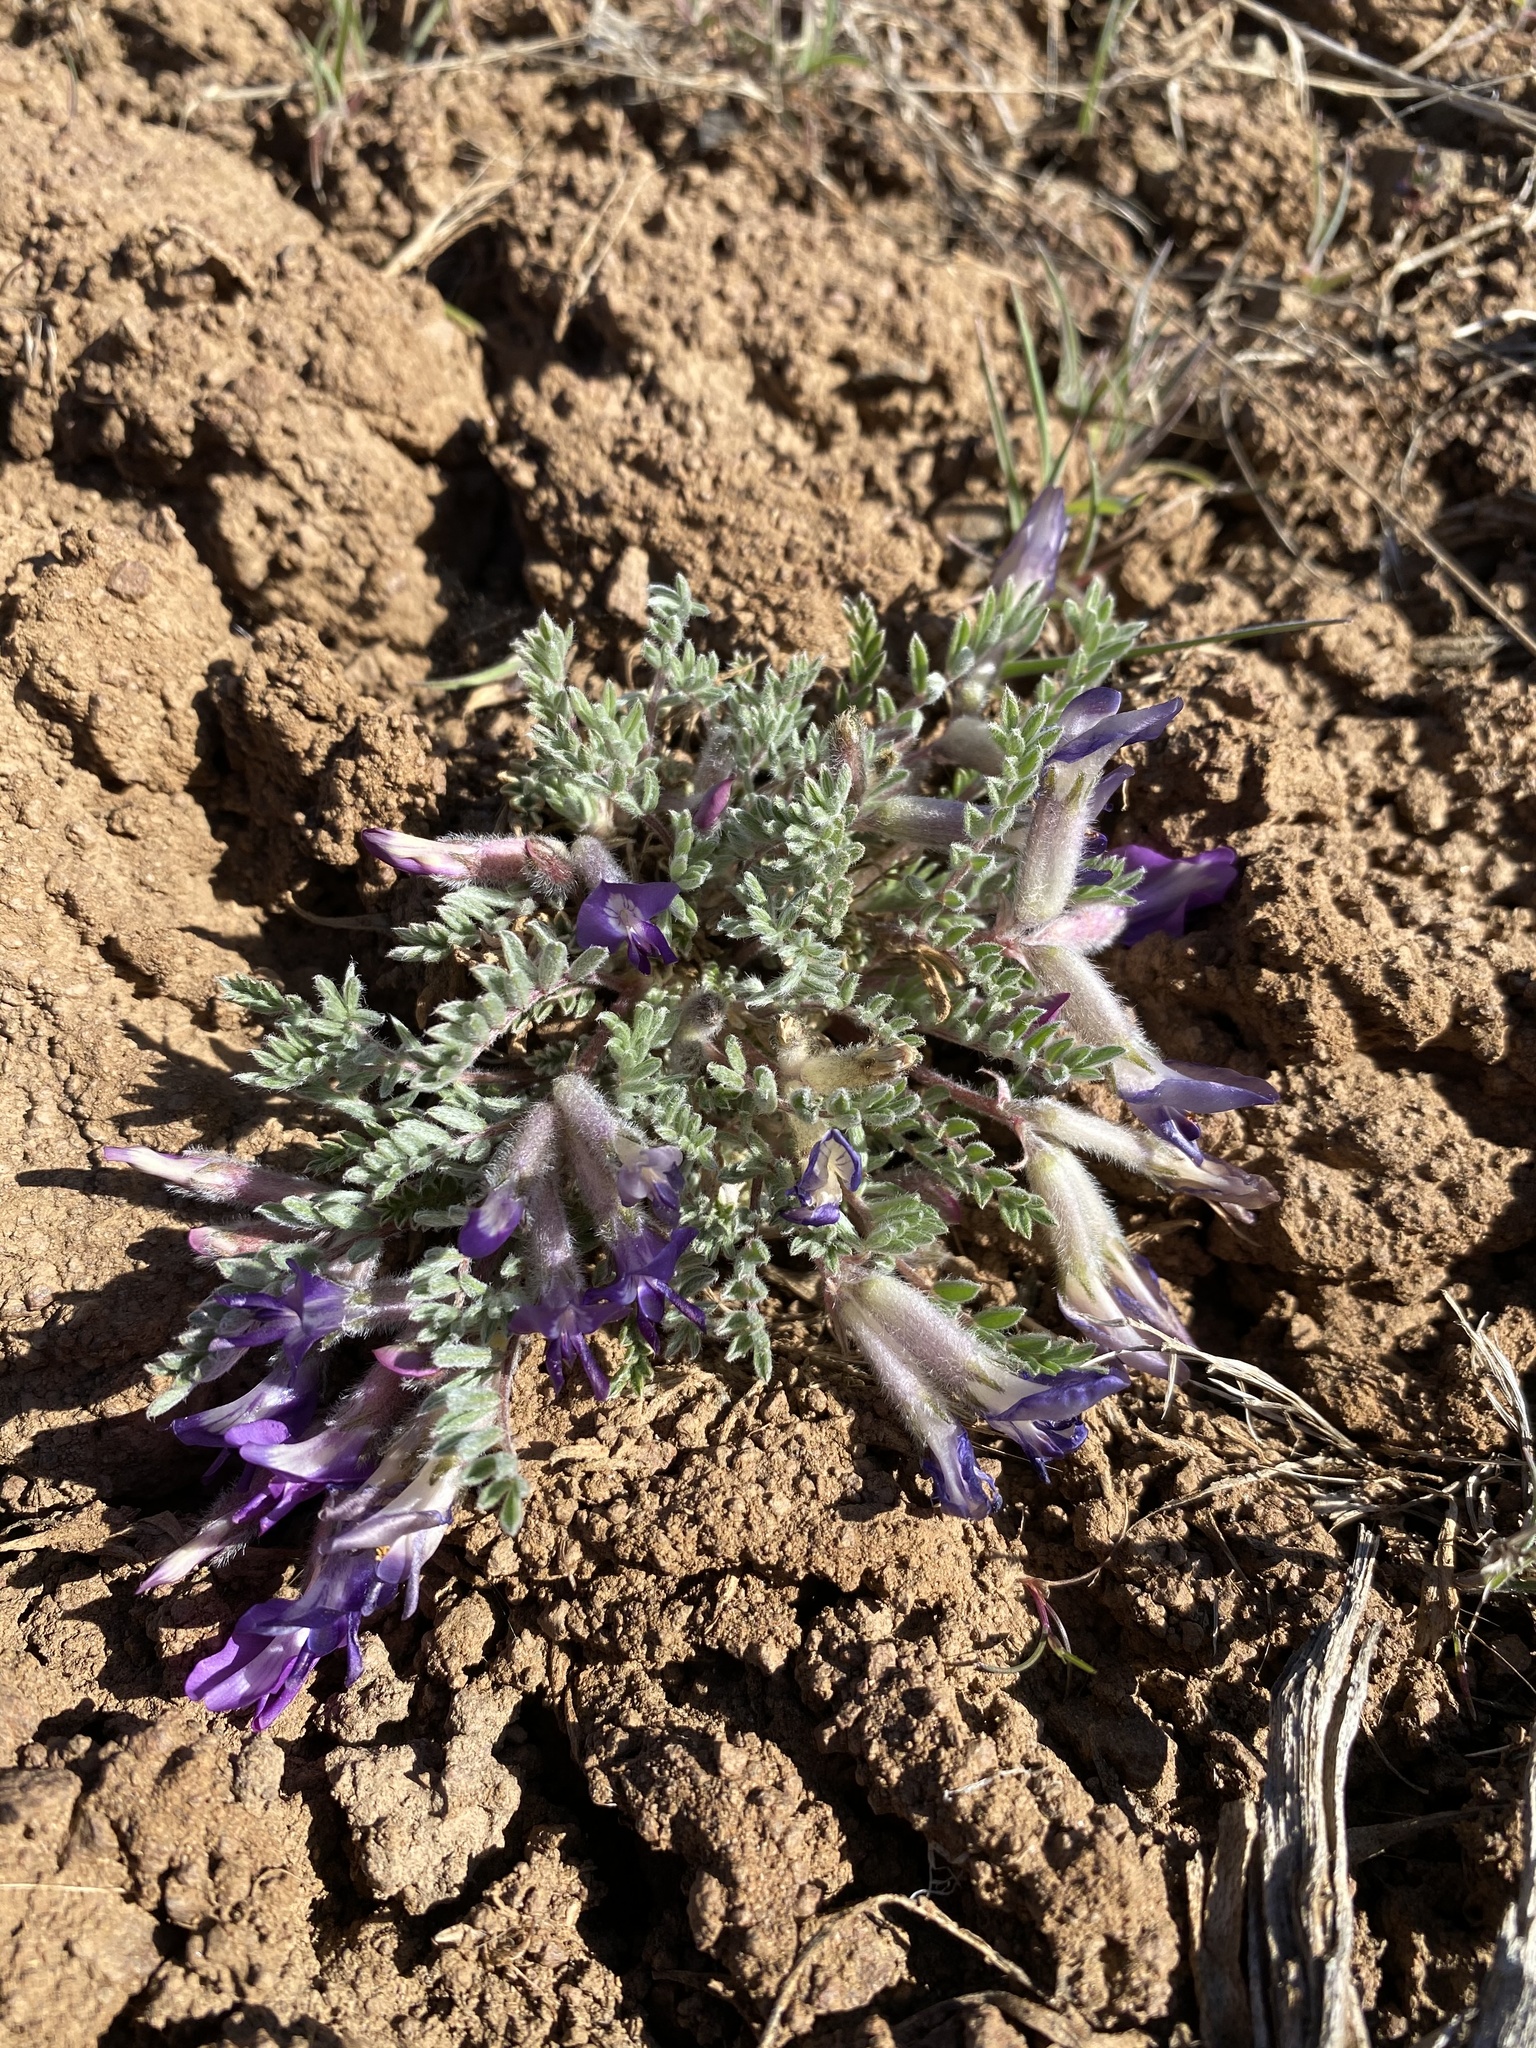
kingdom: Plantae
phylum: Tracheophyta
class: Magnoliopsida
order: Fabales
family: Fabaceae
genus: Astragalus
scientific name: Astragalus purshii
